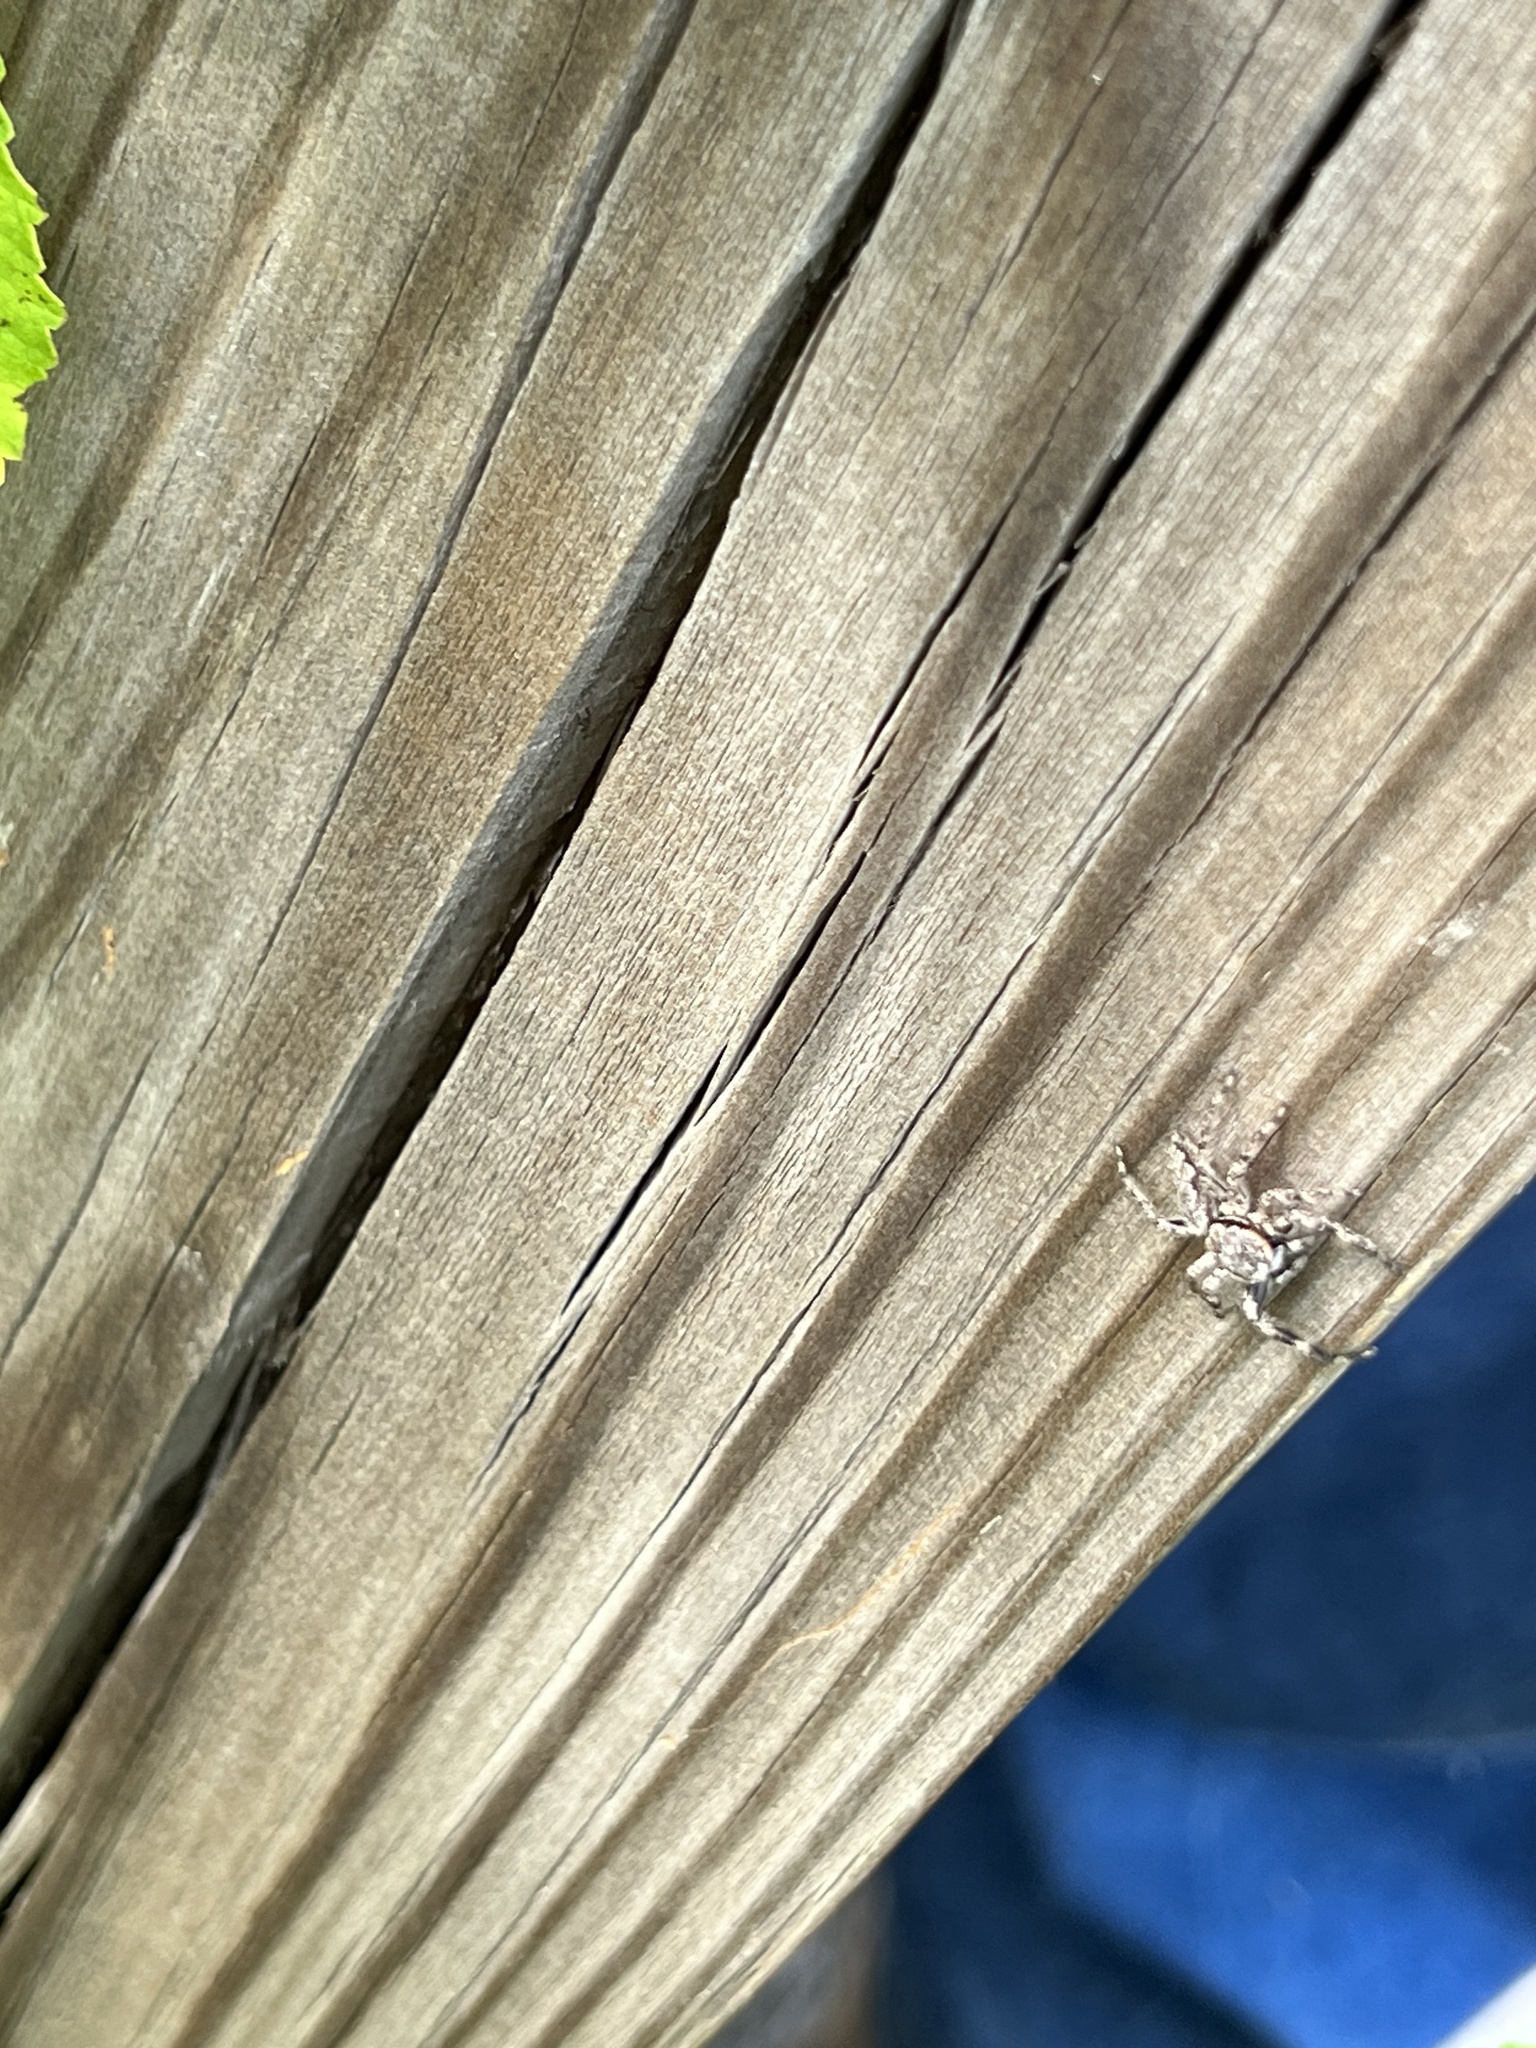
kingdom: Animalia
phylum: Arthropoda
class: Arachnida
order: Araneae
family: Salticidae
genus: Platycryptus
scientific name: Platycryptus undatus
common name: Tan jumping spider
